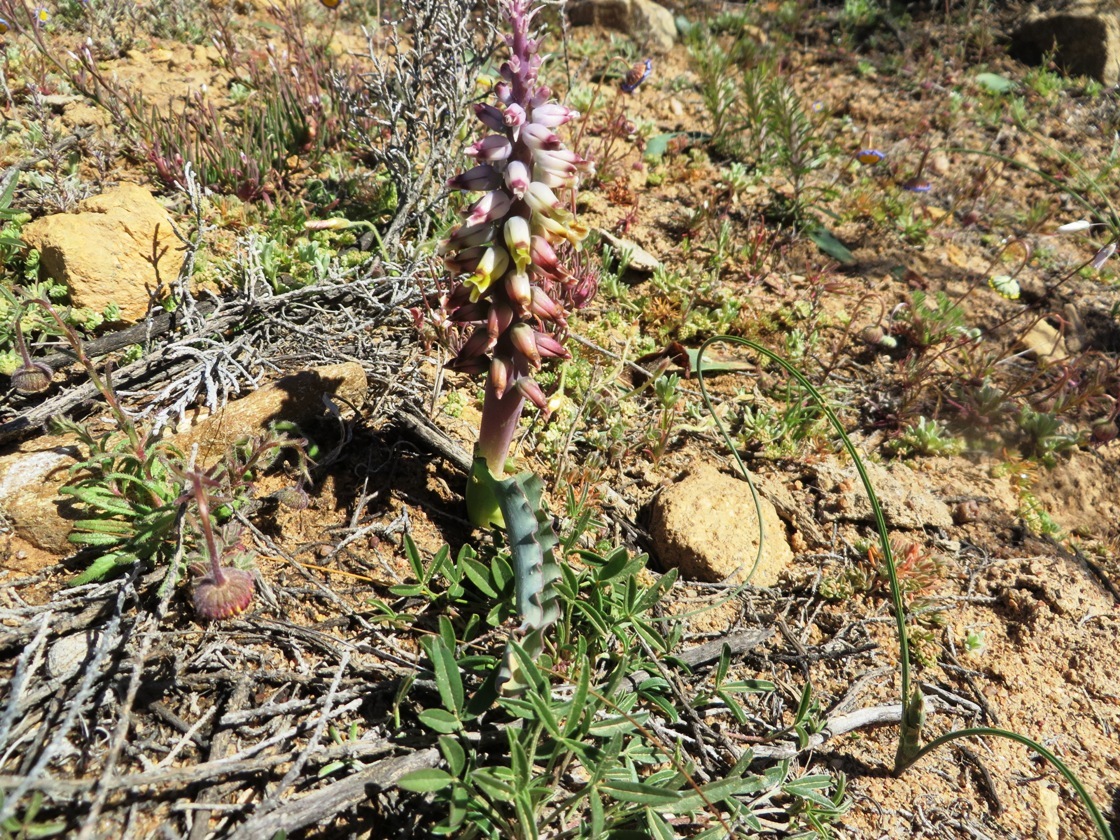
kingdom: Plantae
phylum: Tracheophyta
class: Liliopsida
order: Asparagales
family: Asparagaceae
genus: Lachenalia
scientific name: Lachenalia mutabilis
